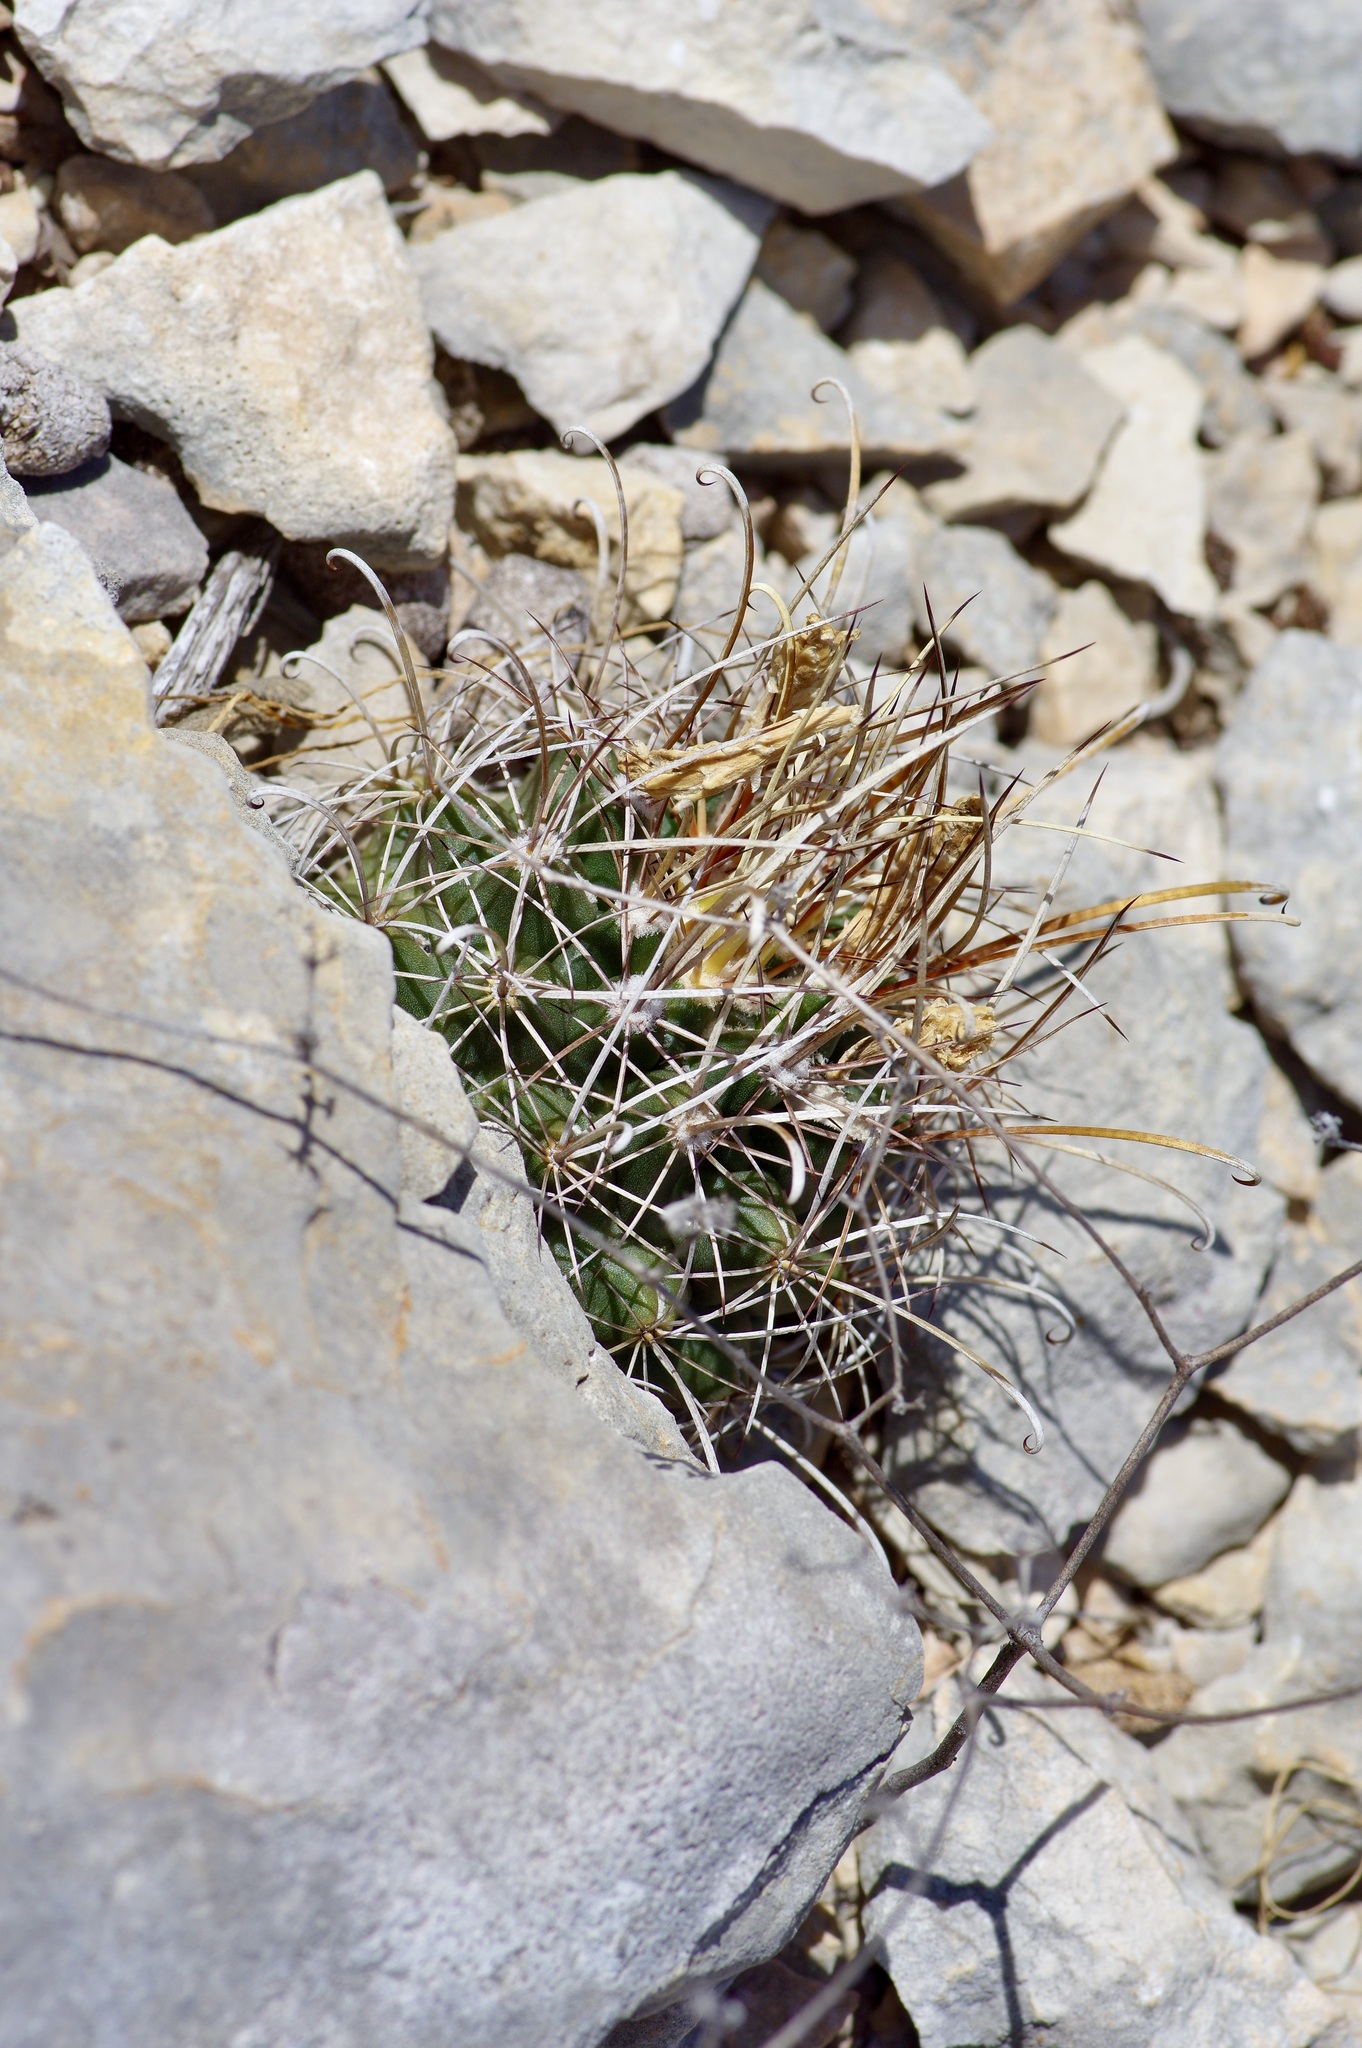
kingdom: Plantae
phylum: Tracheophyta
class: Magnoliopsida
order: Caryophyllales
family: Cactaceae
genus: Sclerocactus
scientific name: Sclerocactus brevihamatus
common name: Engelmann's fishhook cactus
